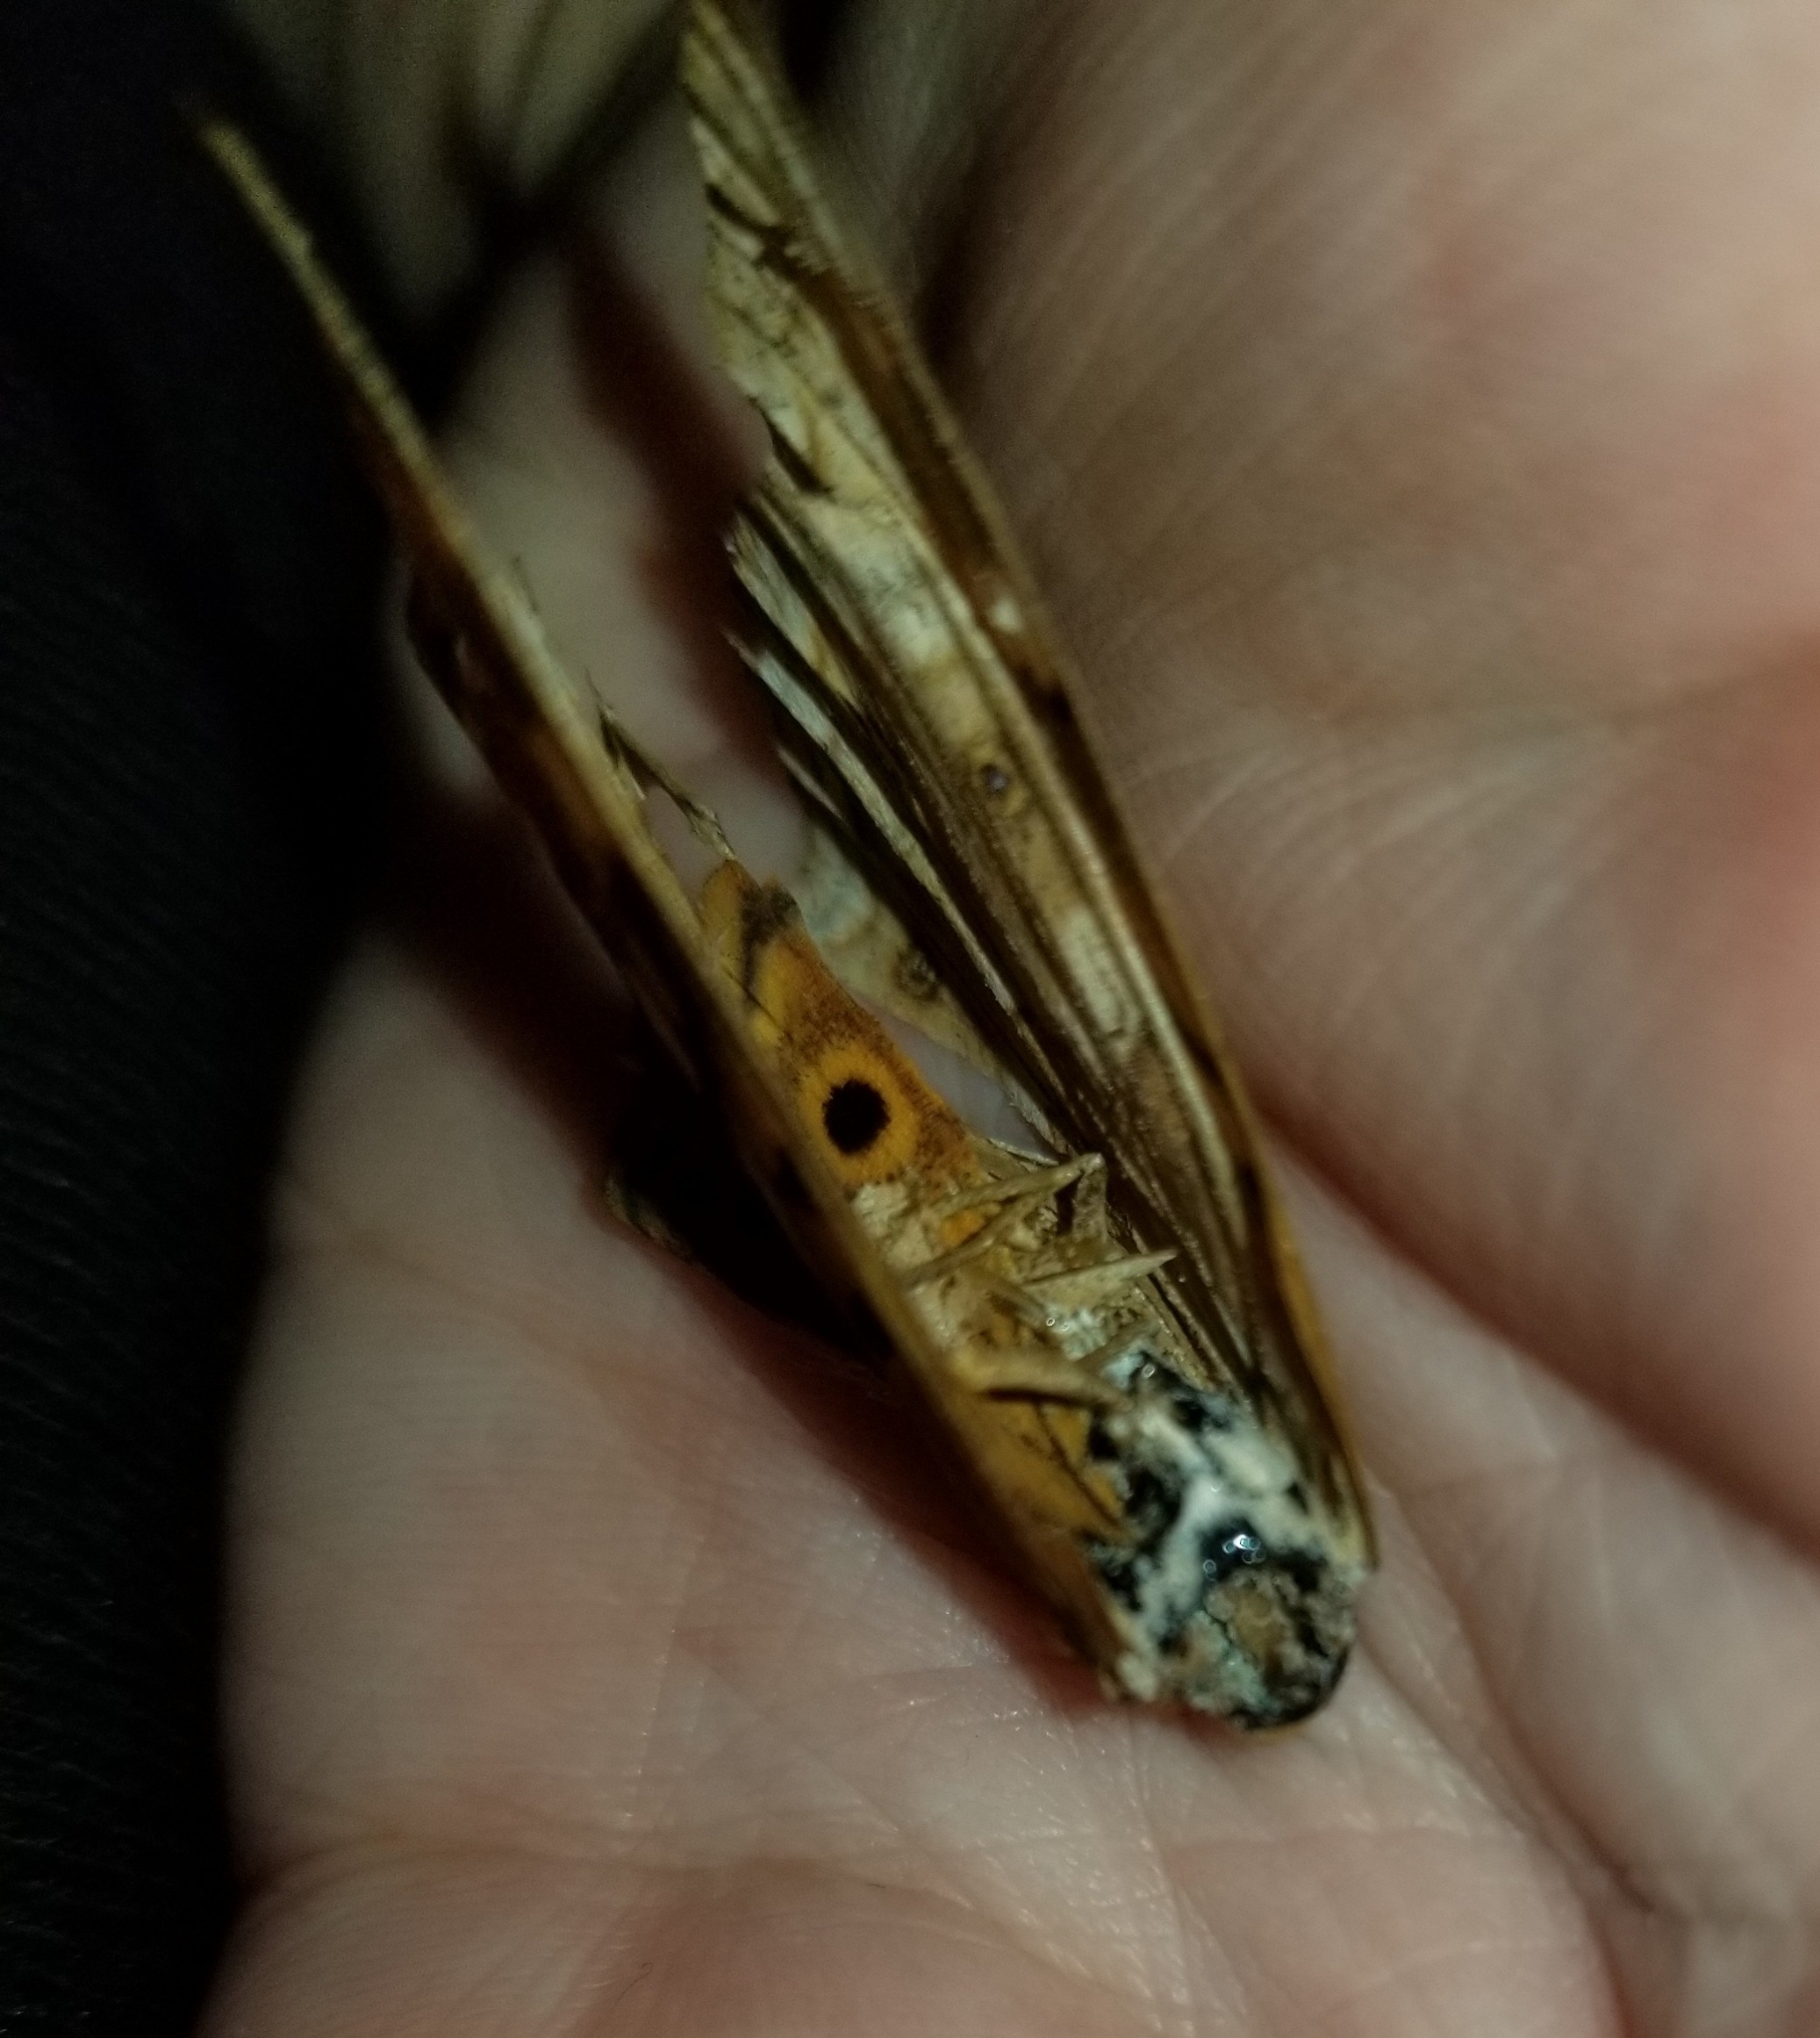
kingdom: Animalia
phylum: Arthropoda
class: Insecta
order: Lepidoptera
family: Nymphalidae
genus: Asterocampa
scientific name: Asterocampa clyton
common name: Tawny emperor
